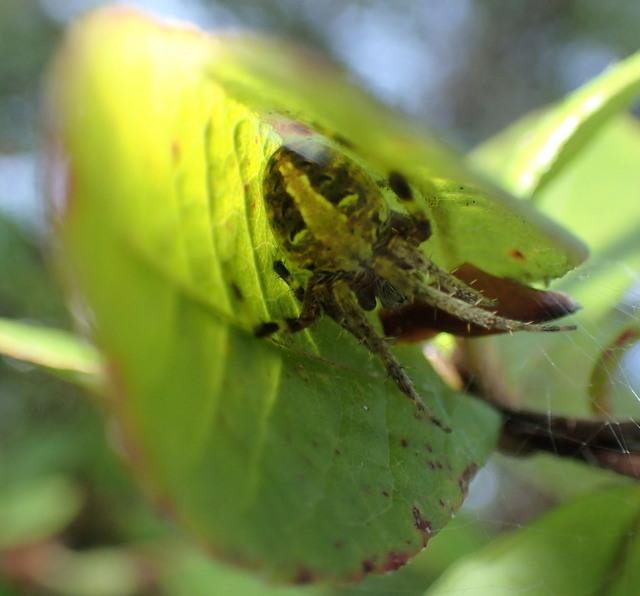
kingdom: Animalia
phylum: Arthropoda
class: Arachnida
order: Araneae
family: Araneidae
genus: Neoscona
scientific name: Neoscona arabesca
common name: Orb weavers
